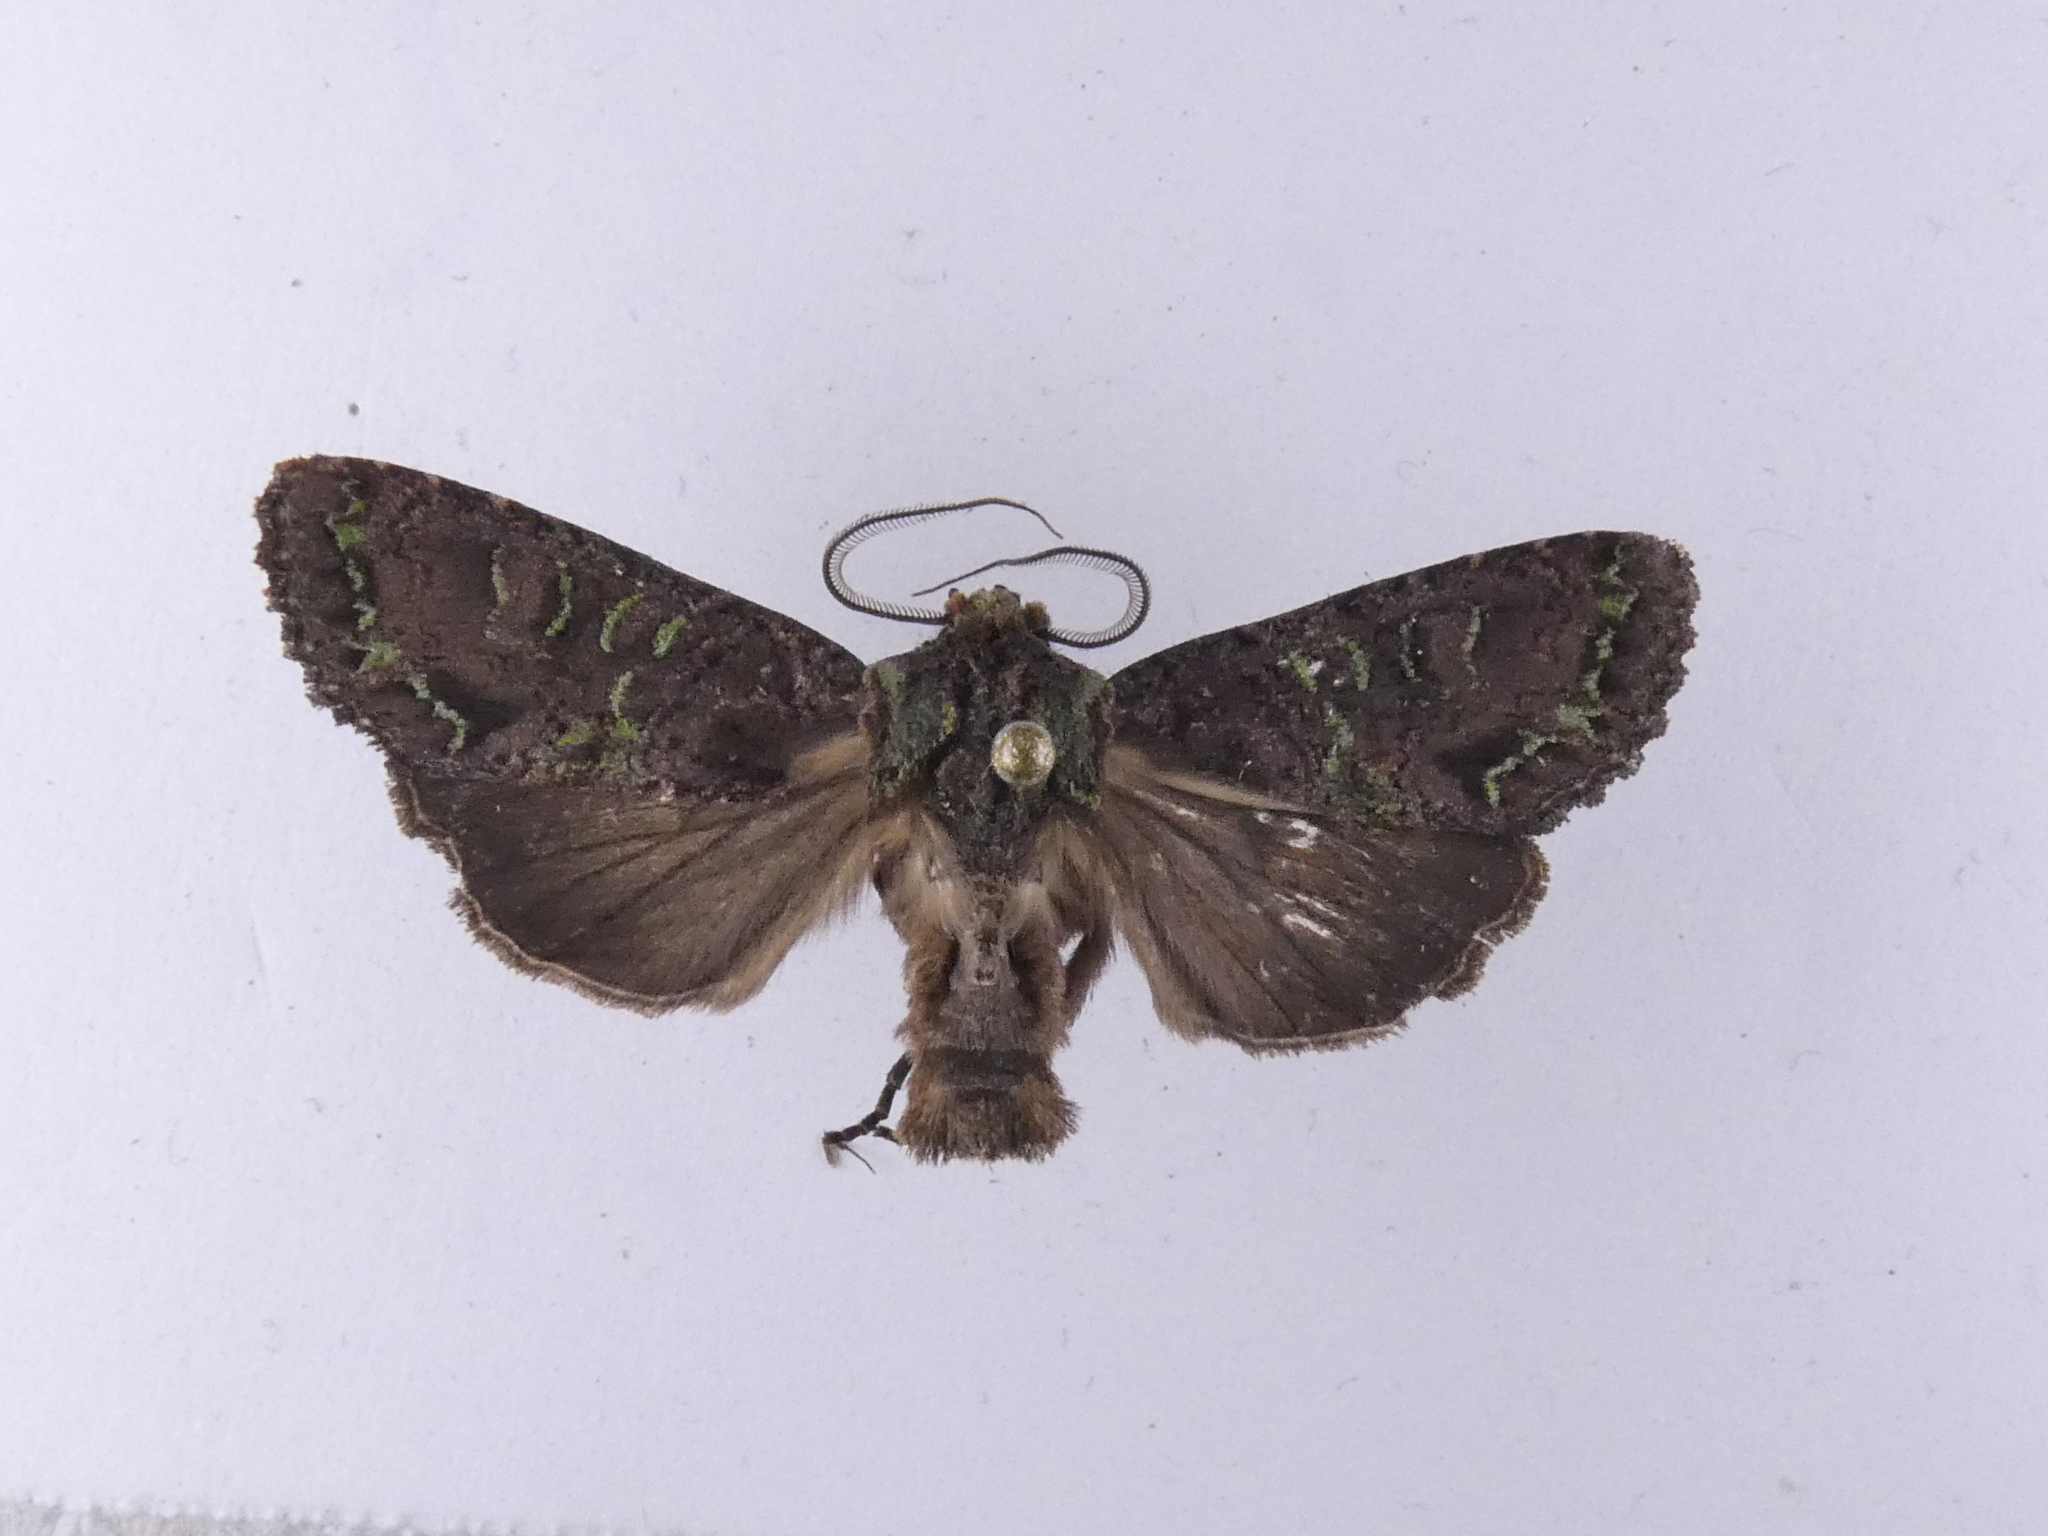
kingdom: Animalia
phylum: Arthropoda
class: Insecta
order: Lepidoptera
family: Noctuidae
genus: Ichneutica
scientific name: Ichneutica insignis
